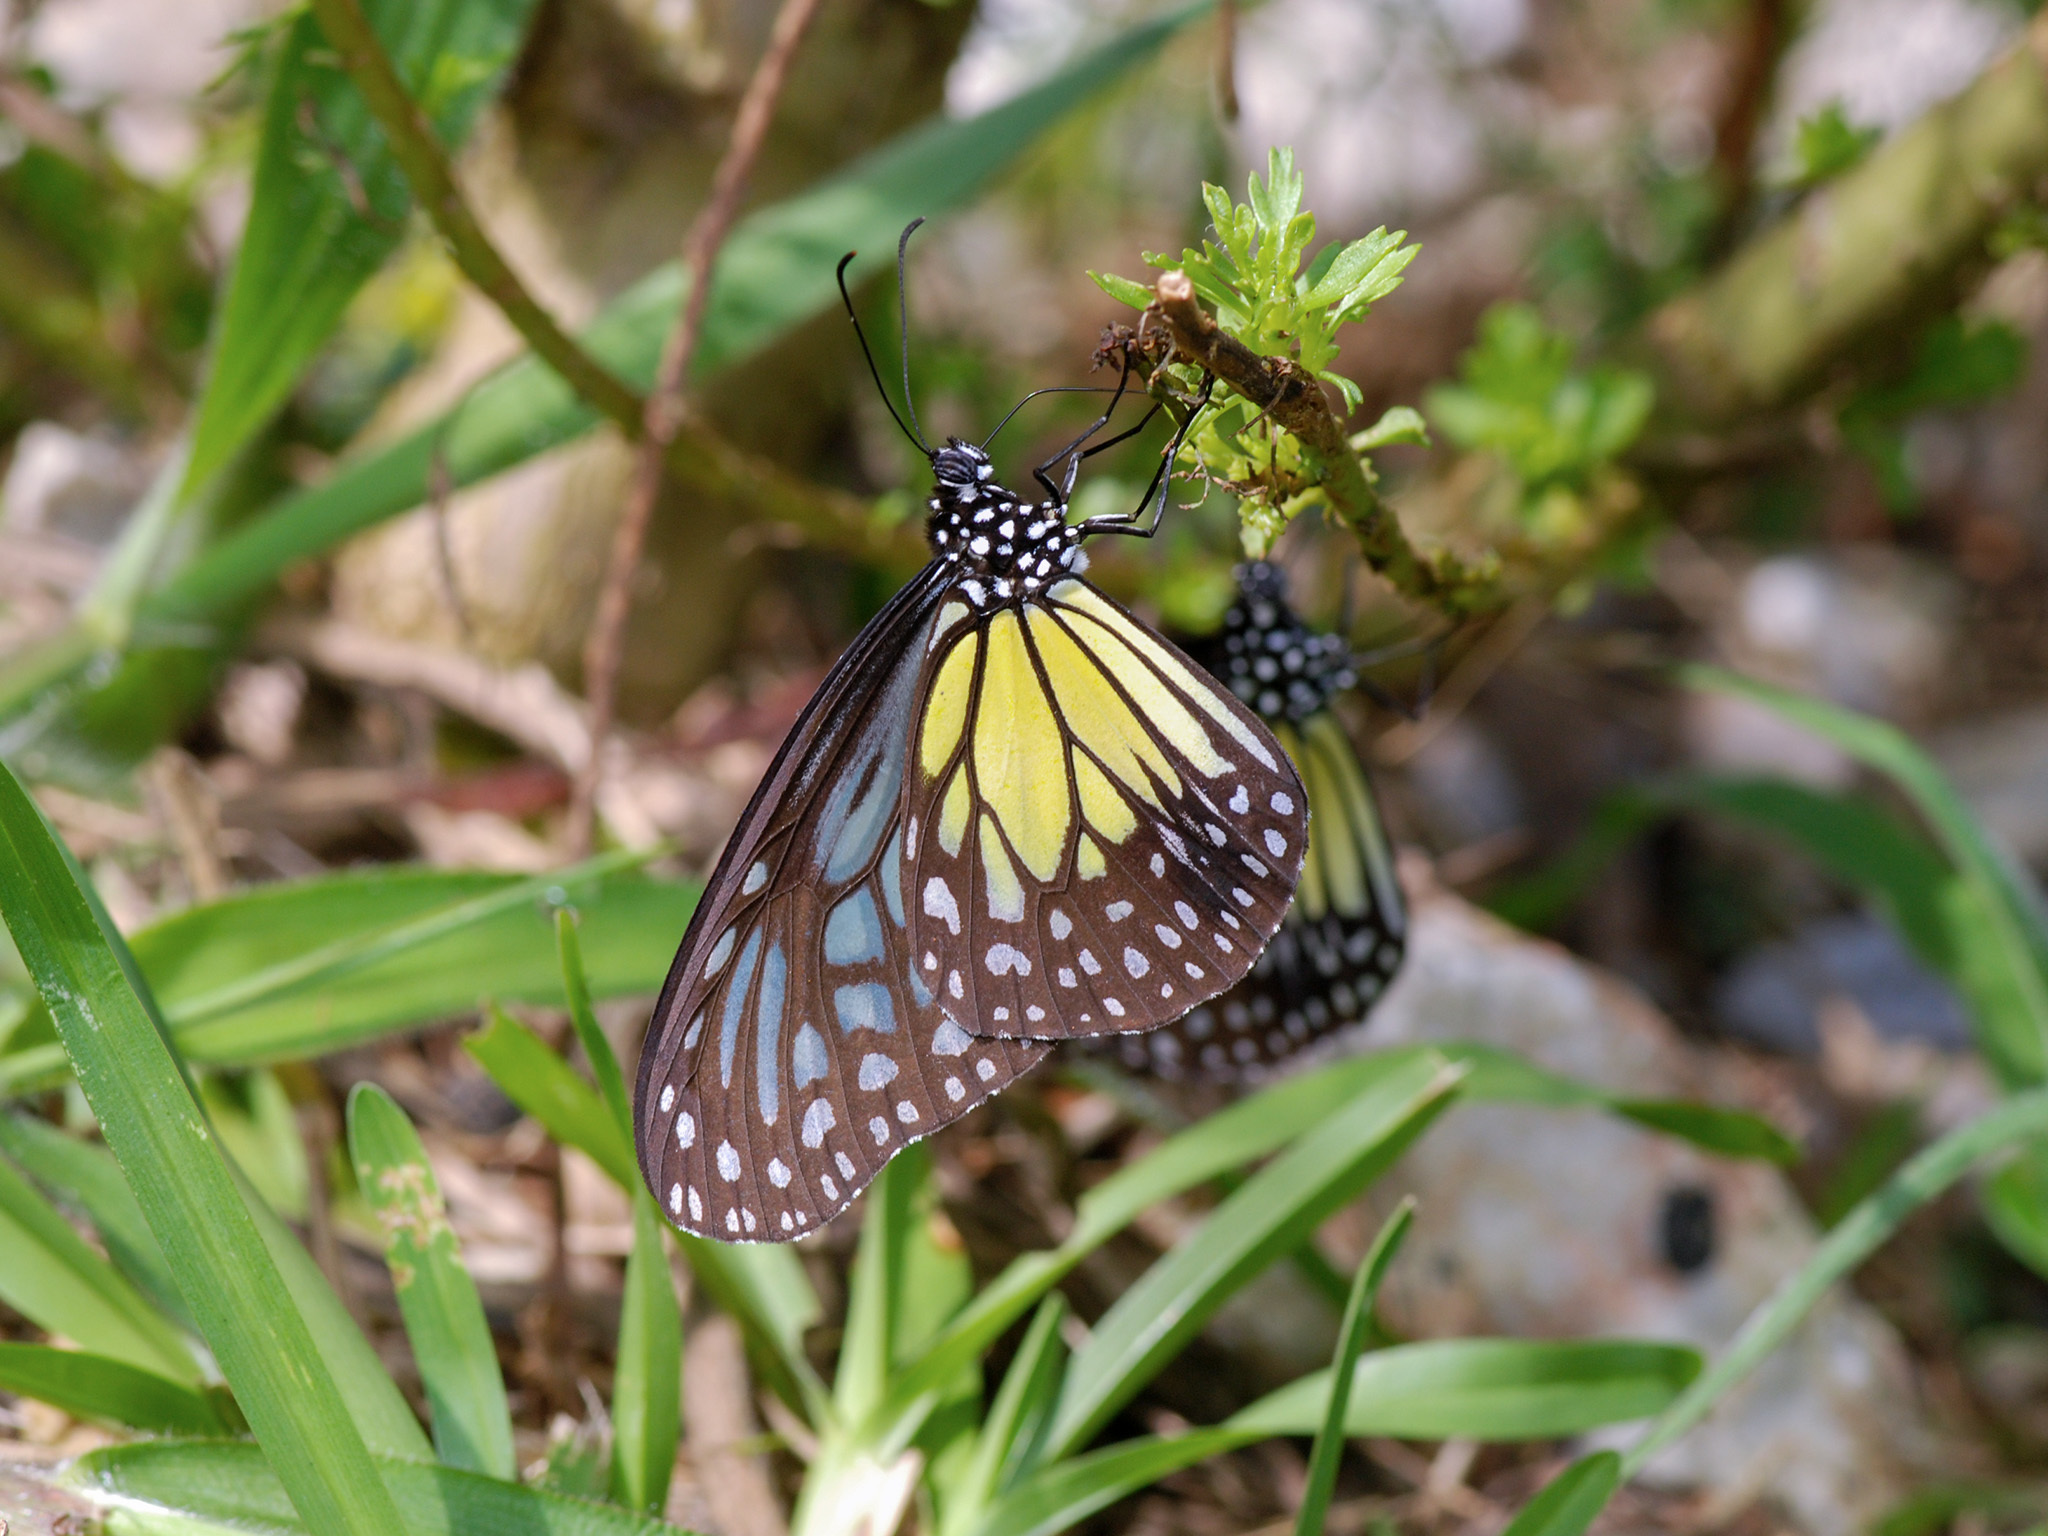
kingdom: Animalia
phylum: Arthropoda
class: Insecta
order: Lepidoptera
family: Nymphalidae
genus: Parantica
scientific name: Parantica aspasia
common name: Yellow glassy tiger
